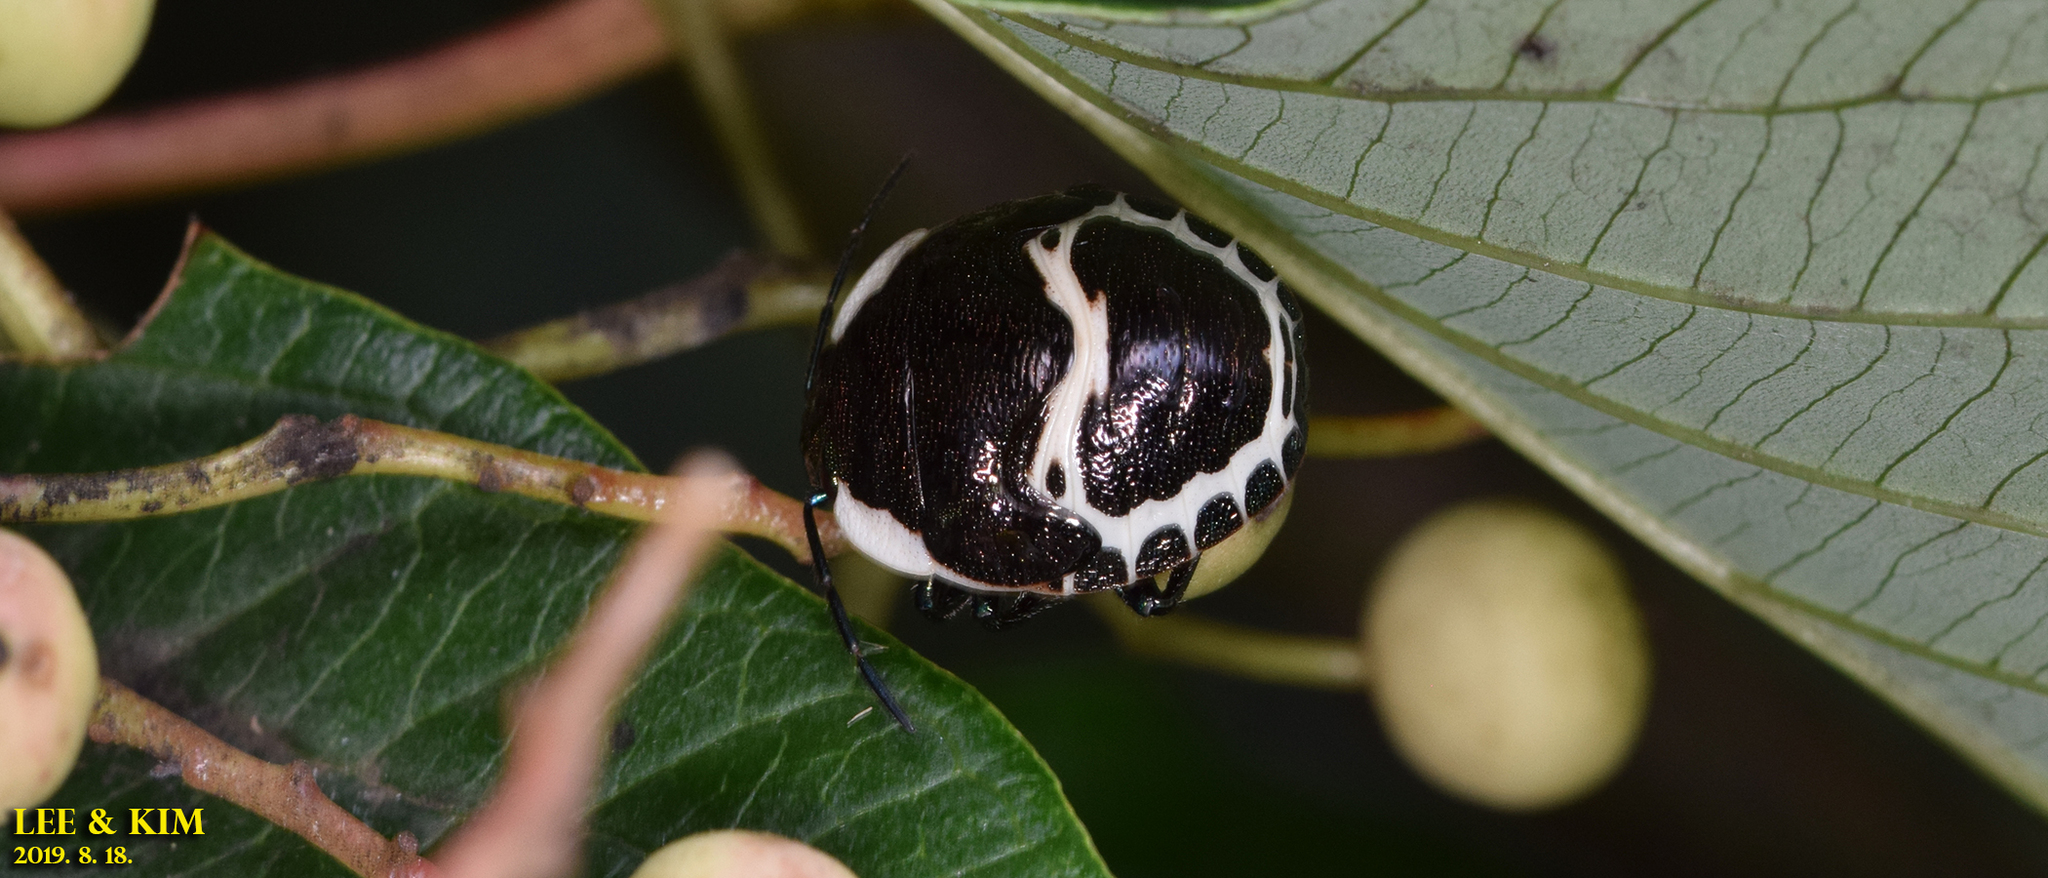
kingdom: Animalia
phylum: Arthropoda
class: Insecta
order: Hemiptera
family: Scutelleridae
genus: Poecilocoris
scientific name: Poecilocoris lewisi
